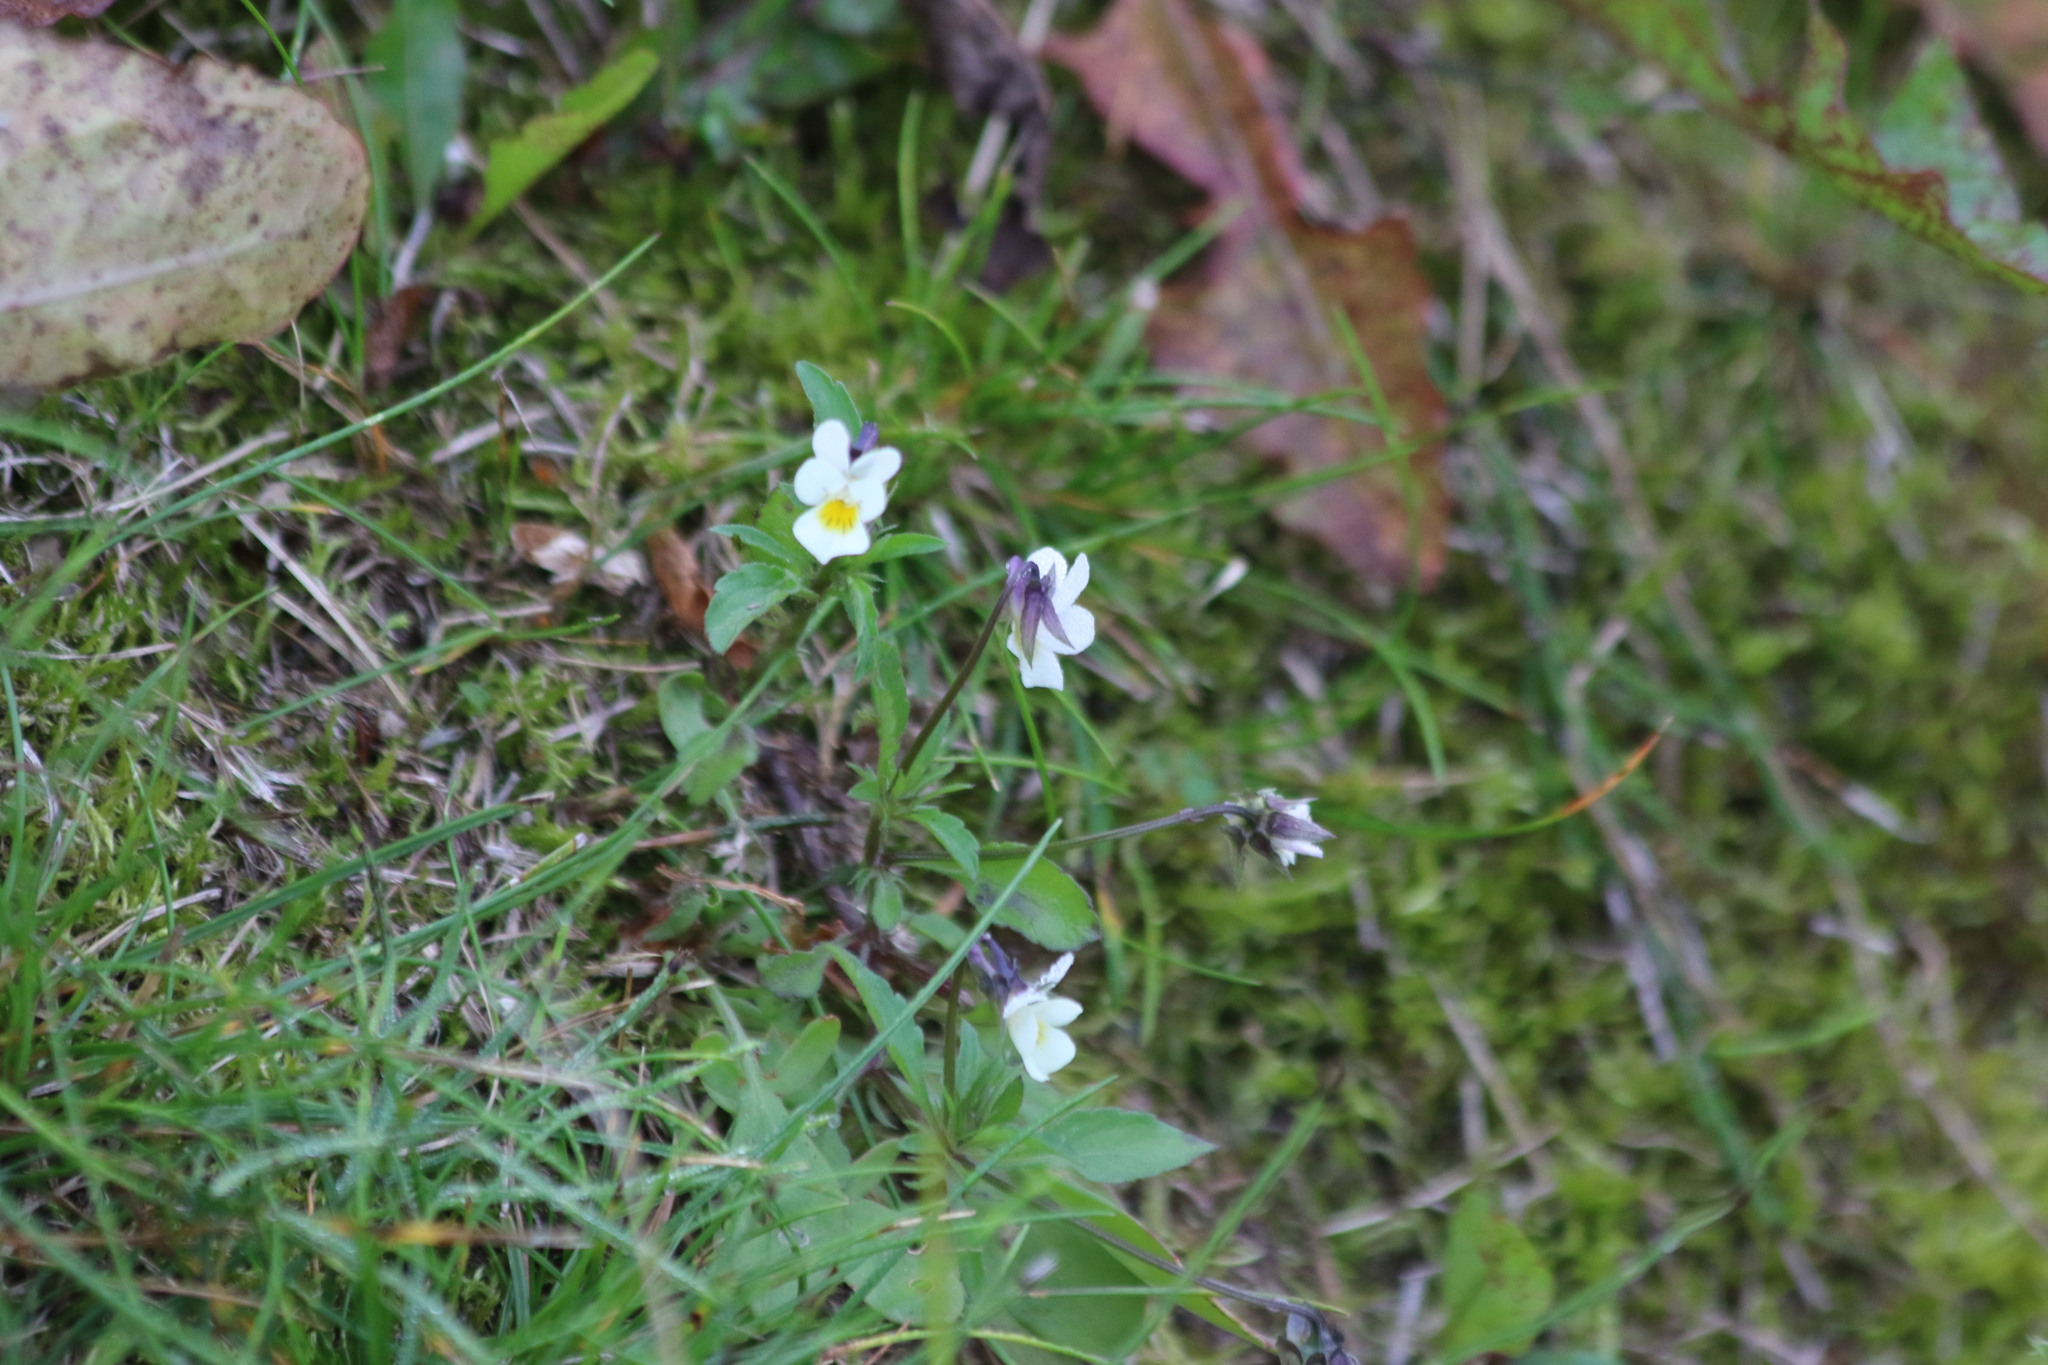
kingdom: Plantae
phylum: Tracheophyta
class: Magnoliopsida
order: Malpighiales
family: Violaceae
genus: Viola
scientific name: Viola arvensis
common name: Field pansy
